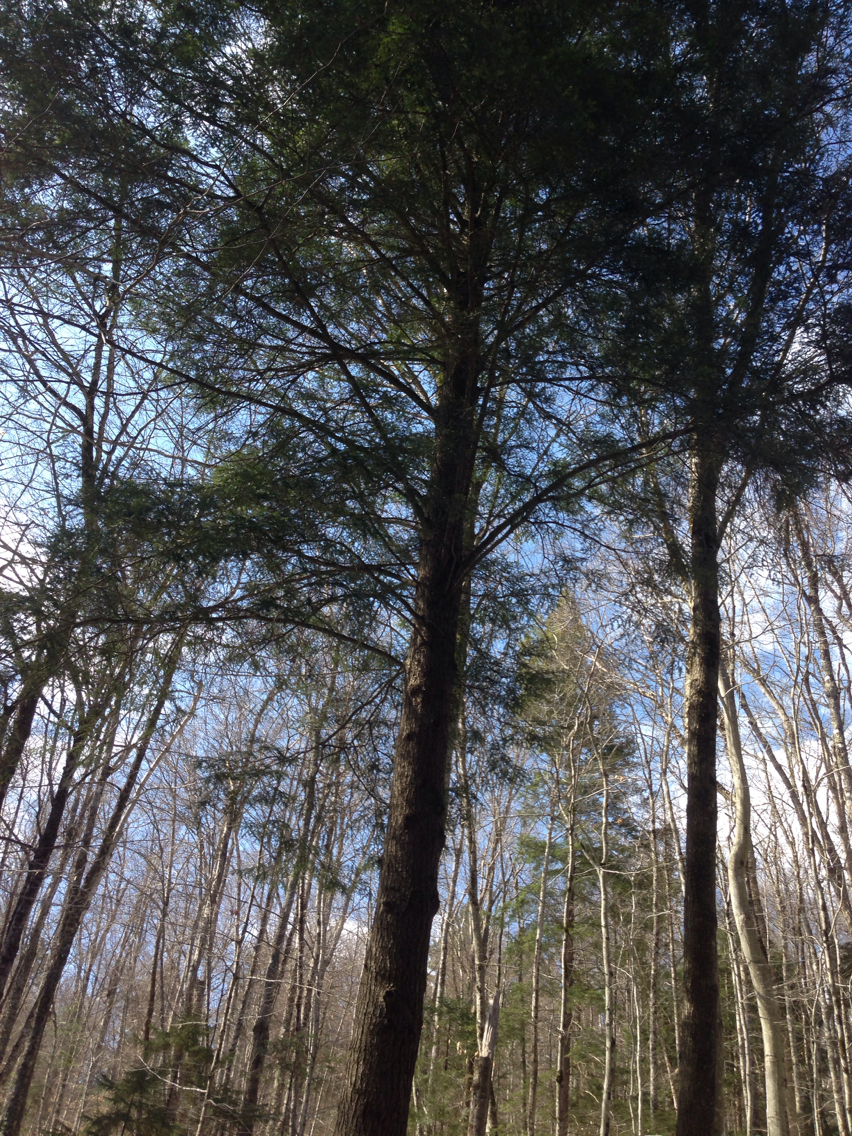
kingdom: Plantae
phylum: Tracheophyta
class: Pinopsida
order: Pinales
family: Pinaceae
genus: Tsuga
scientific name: Tsuga canadensis
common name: Eastern hemlock
